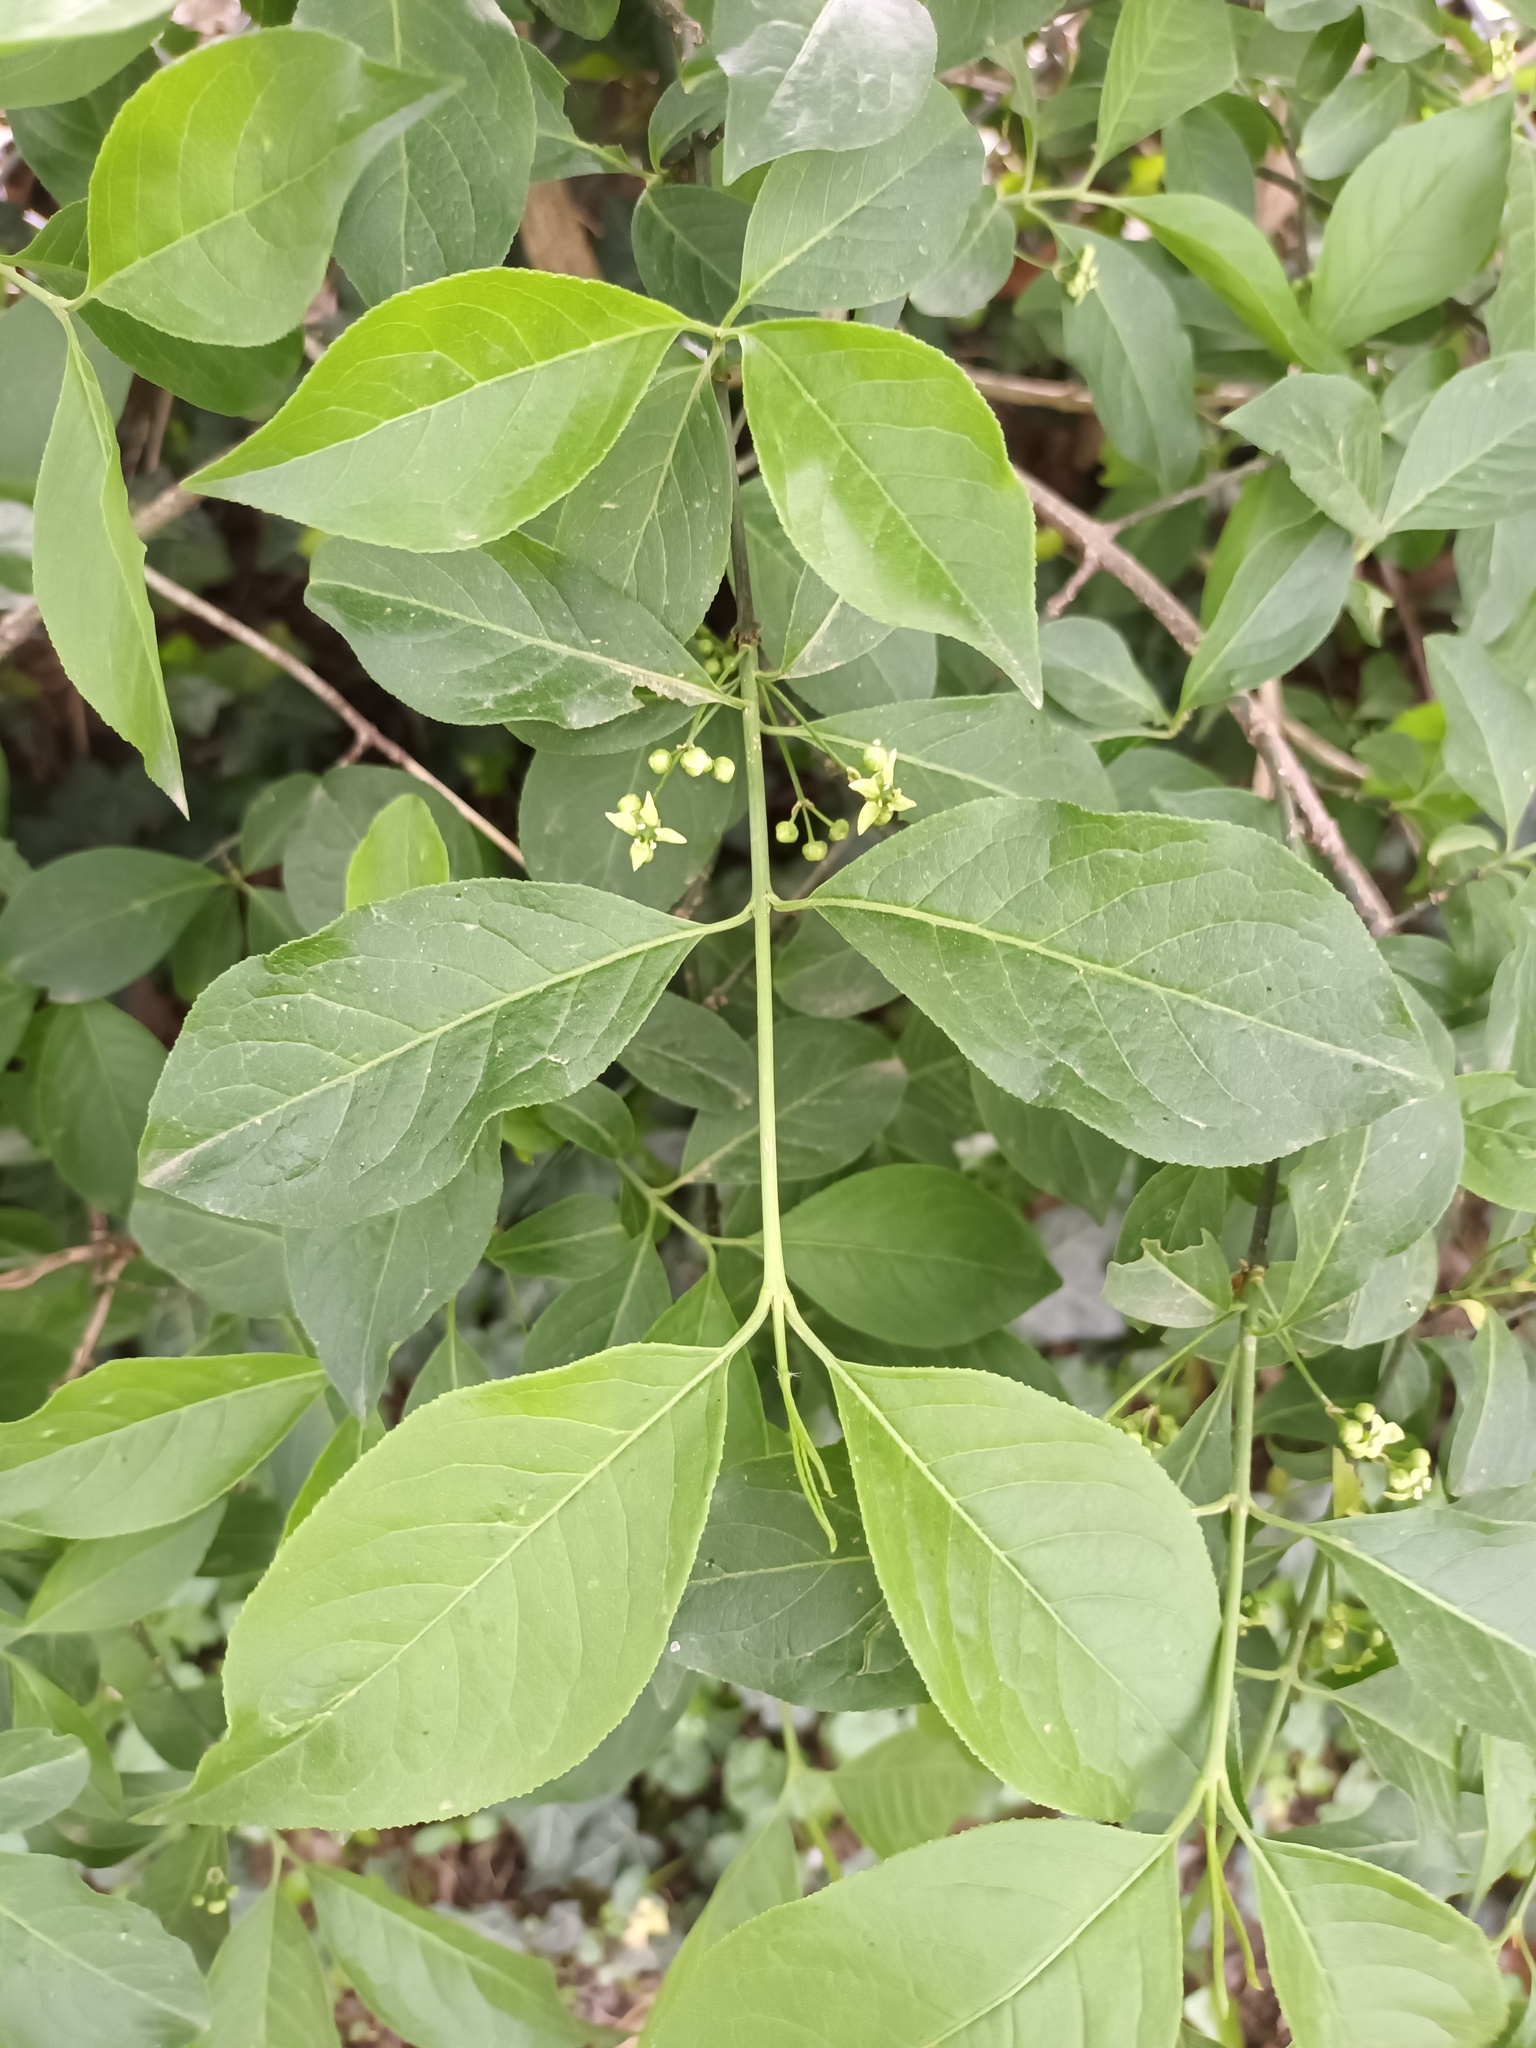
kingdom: Plantae
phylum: Tracheophyta
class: Magnoliopsida
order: Celastrales
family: Celastraceae
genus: Euonymus
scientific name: Euonymus europaeus
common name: Spindle
